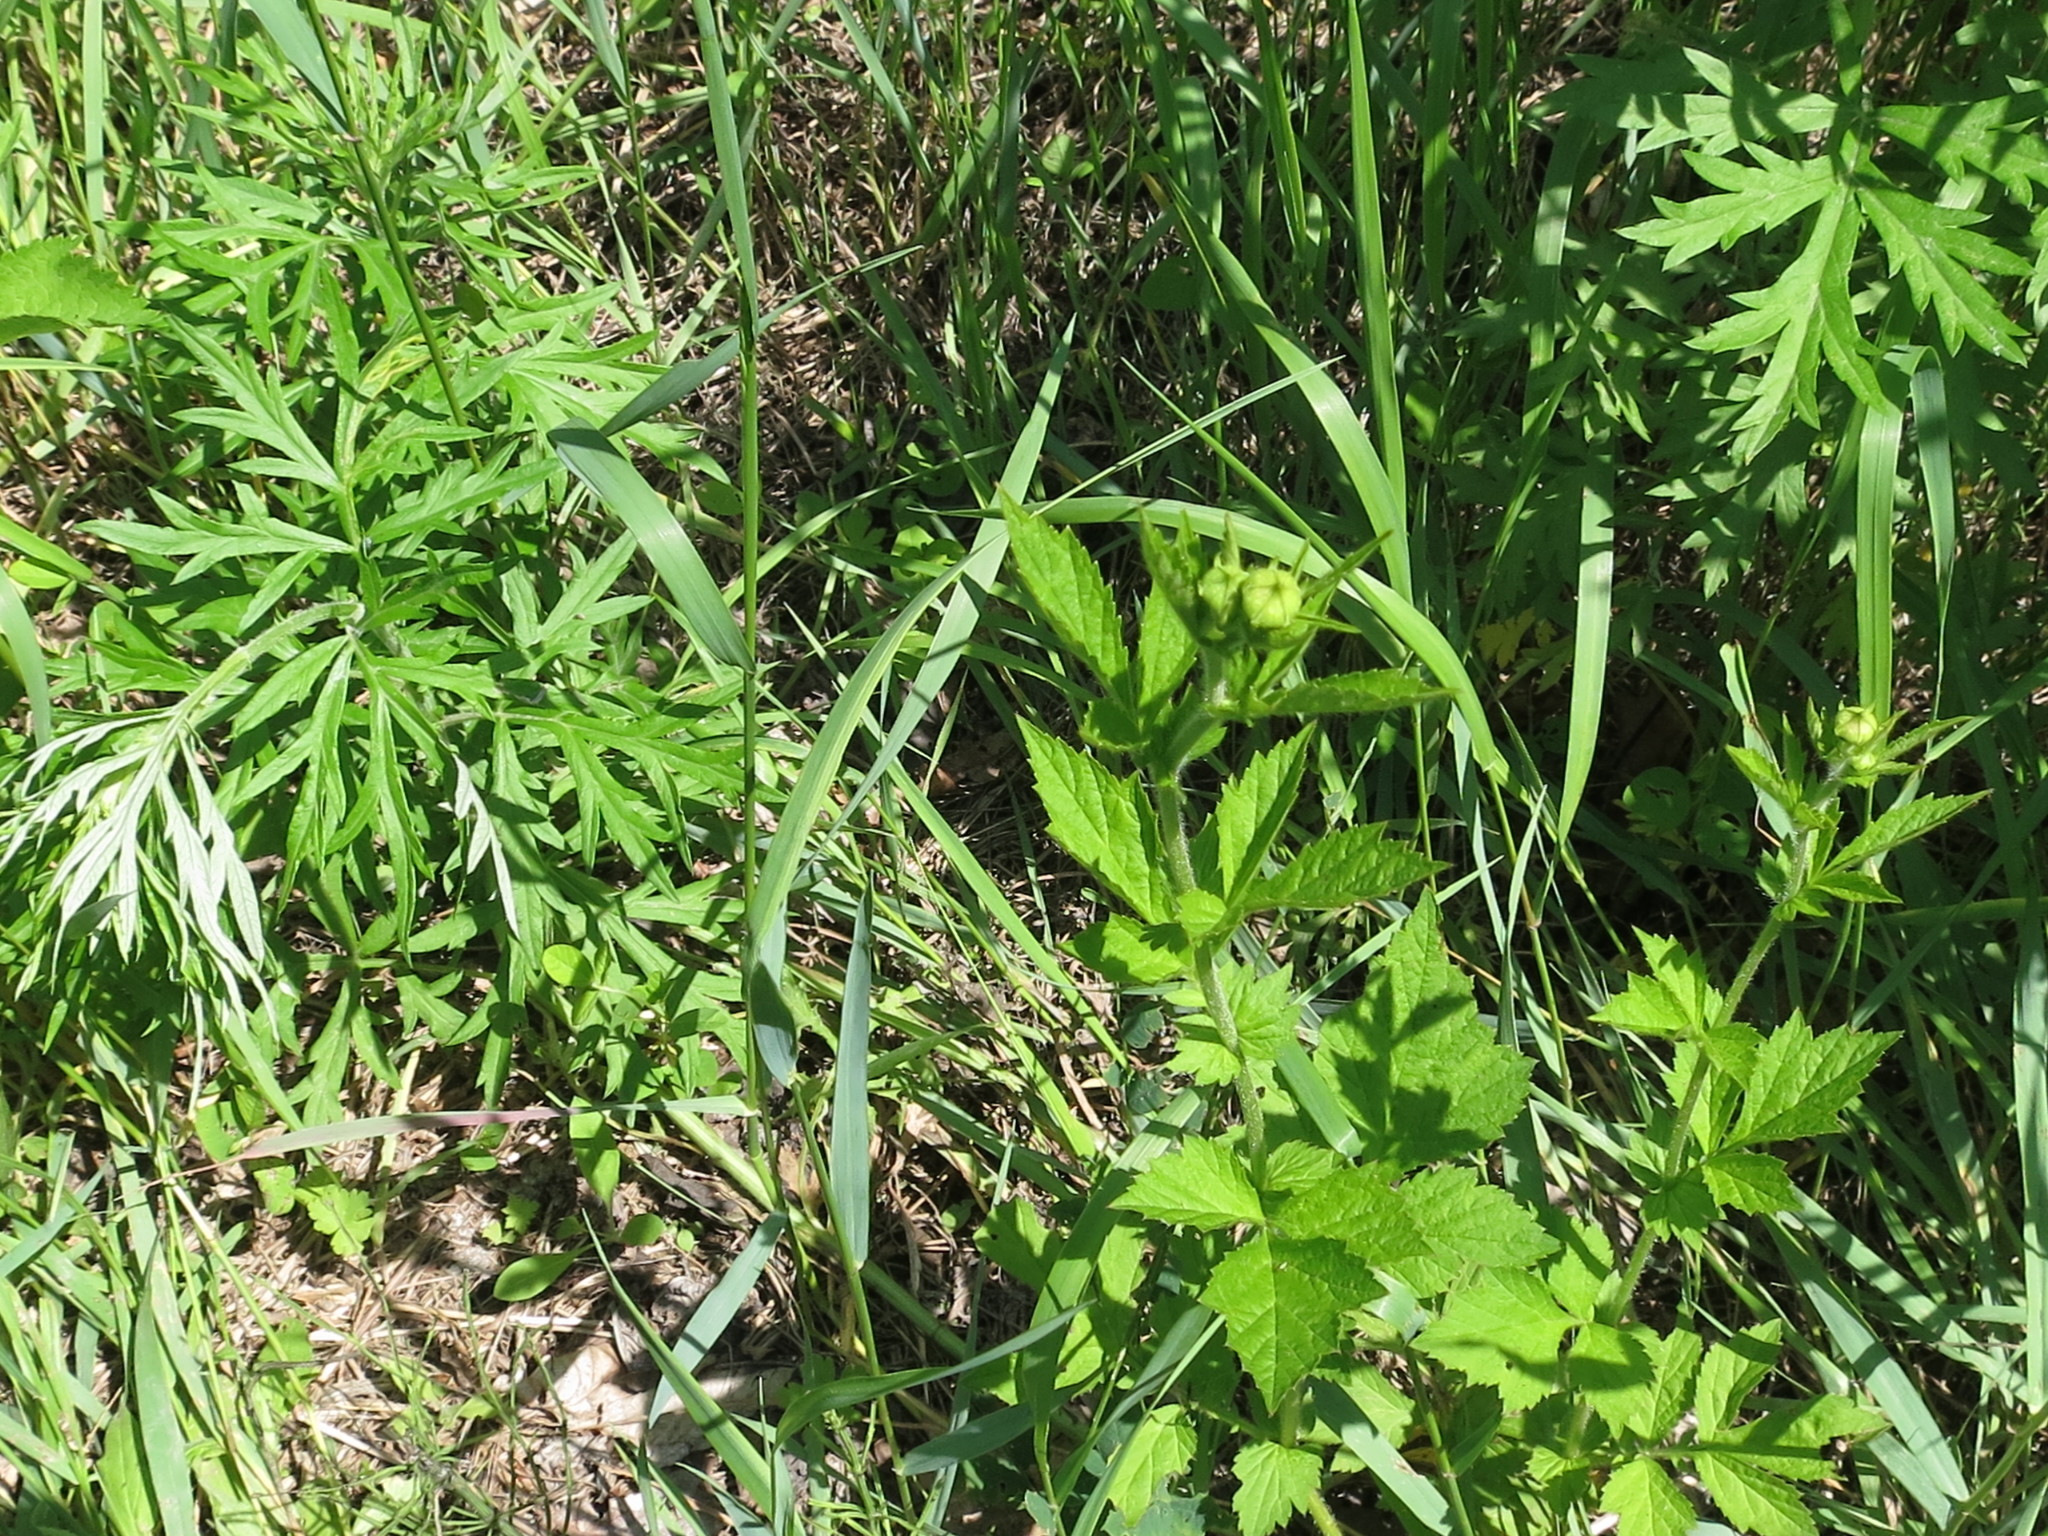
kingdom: Plantae
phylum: Tracheophyta
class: Magnoliopsida
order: Rosales
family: Rosaceae
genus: Geum
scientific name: Geum aleppicum
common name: Yellow avens
